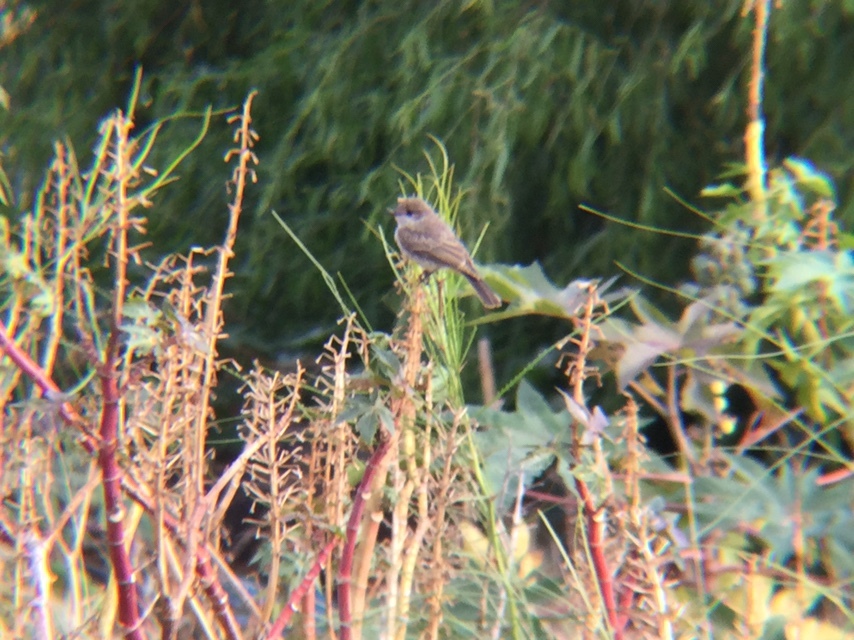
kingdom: Animalia
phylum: Chordata
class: Aves
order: Passeriformes
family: Tyrannidae
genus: Pyrocephalus
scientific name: Pyrocephalus rubinus
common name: Vermilion flycatcher
